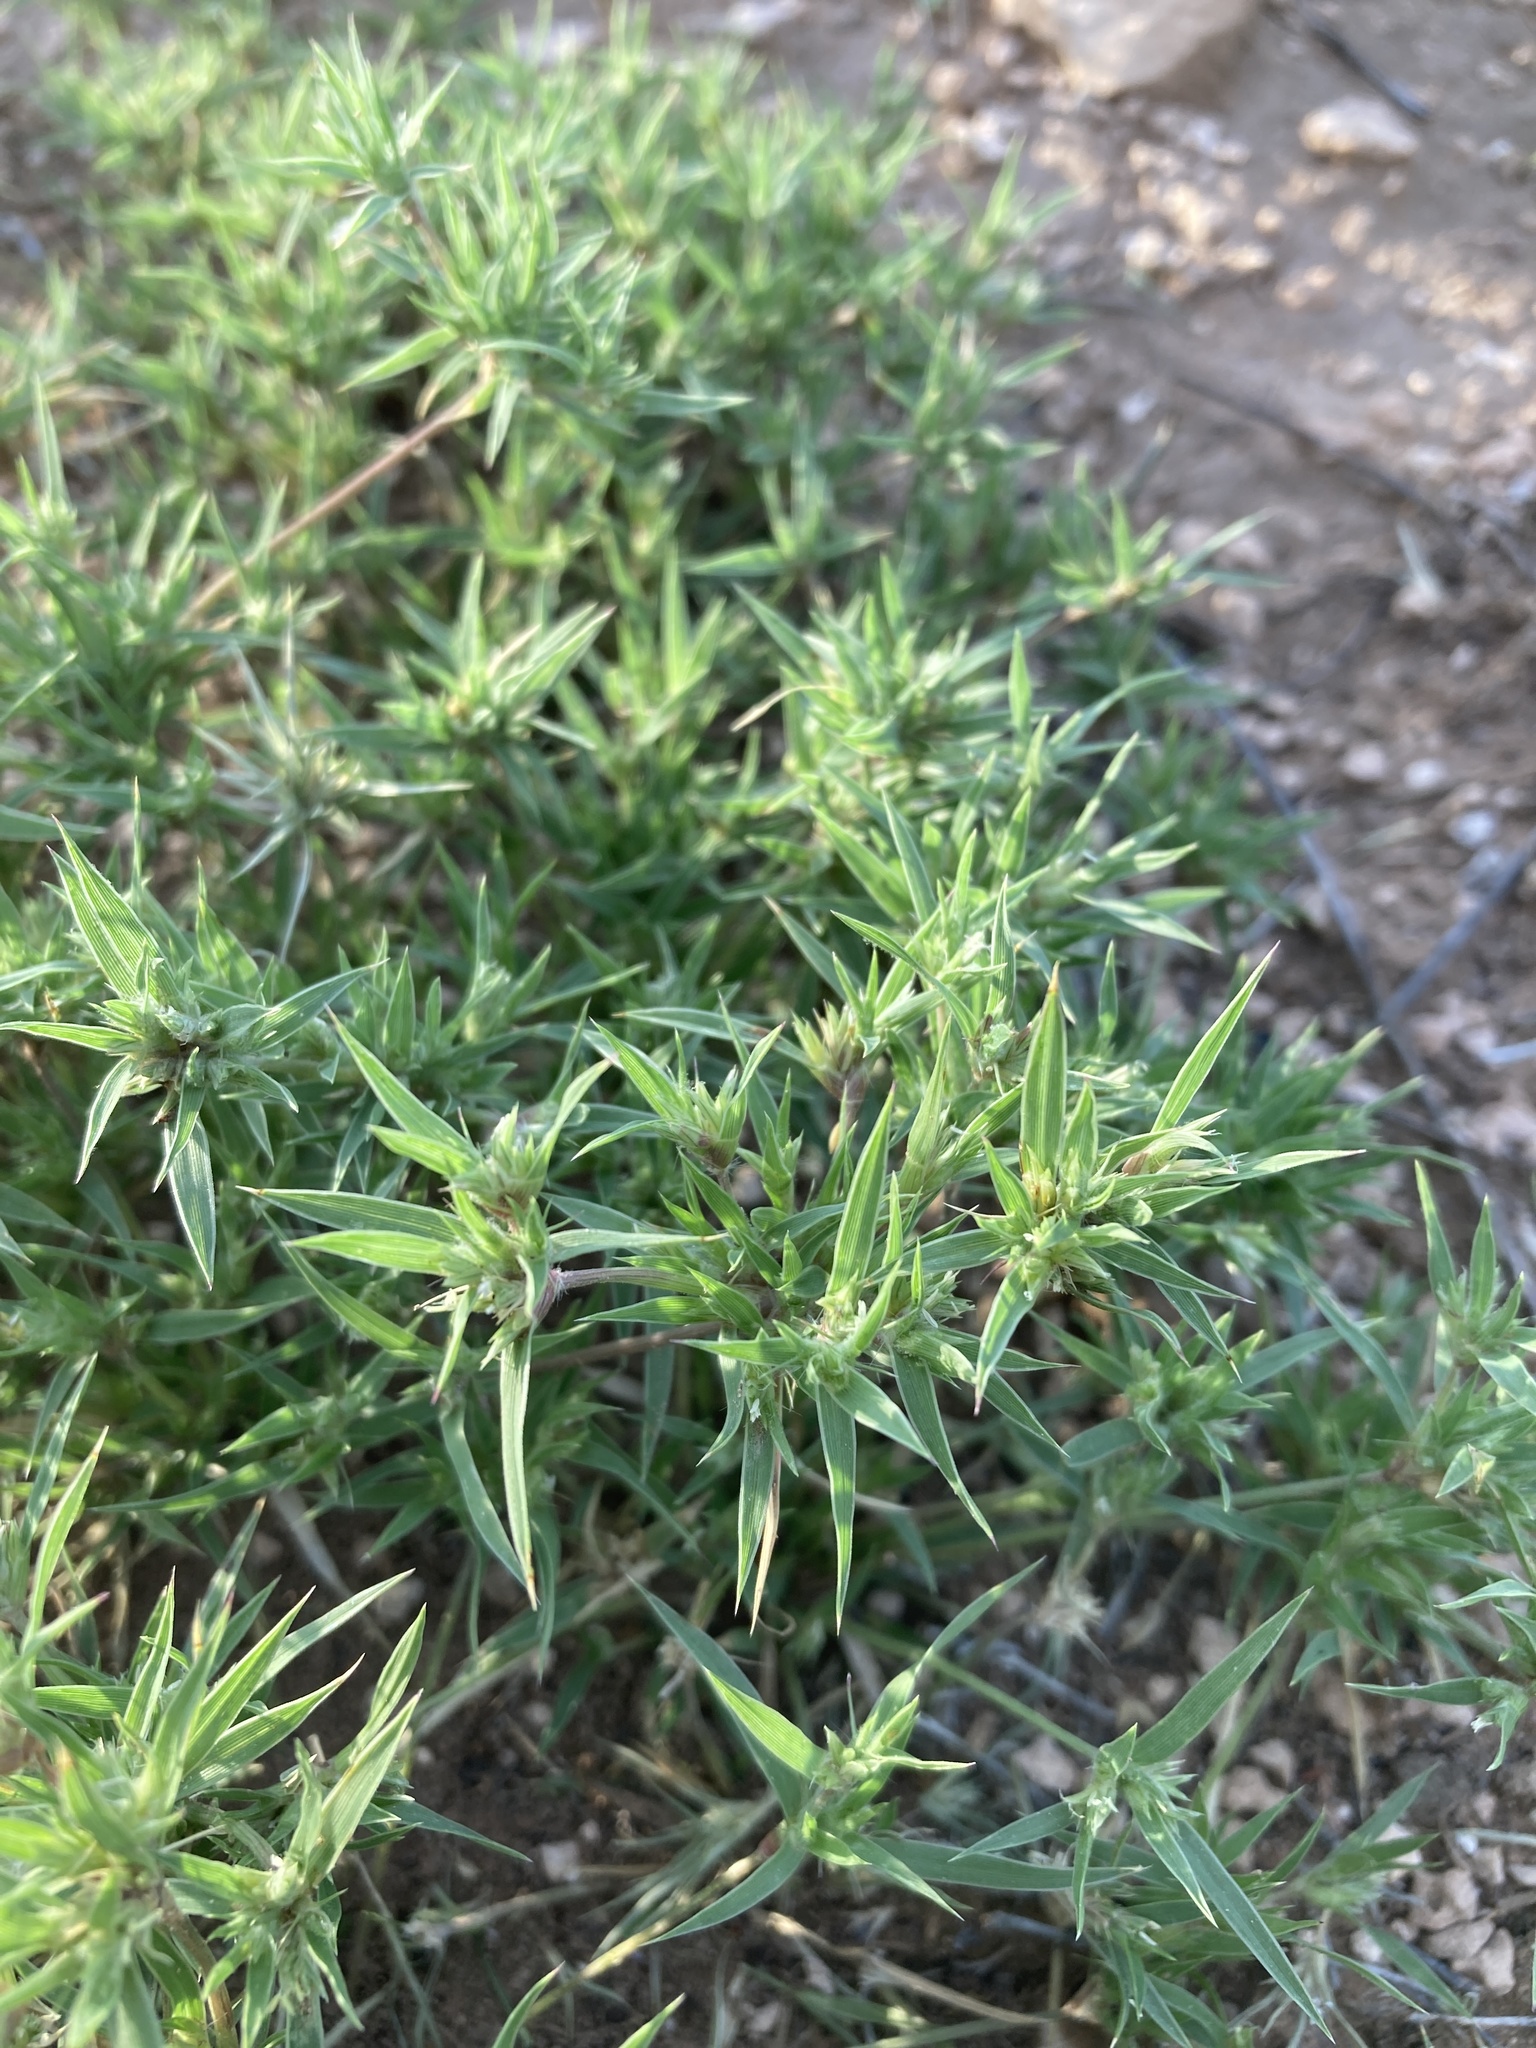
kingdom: Plantae
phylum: Tracheophyta
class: Liliopsida
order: Poales
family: Poaceae
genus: Munroa
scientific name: Munroa squarrosa
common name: False buffalo grass
